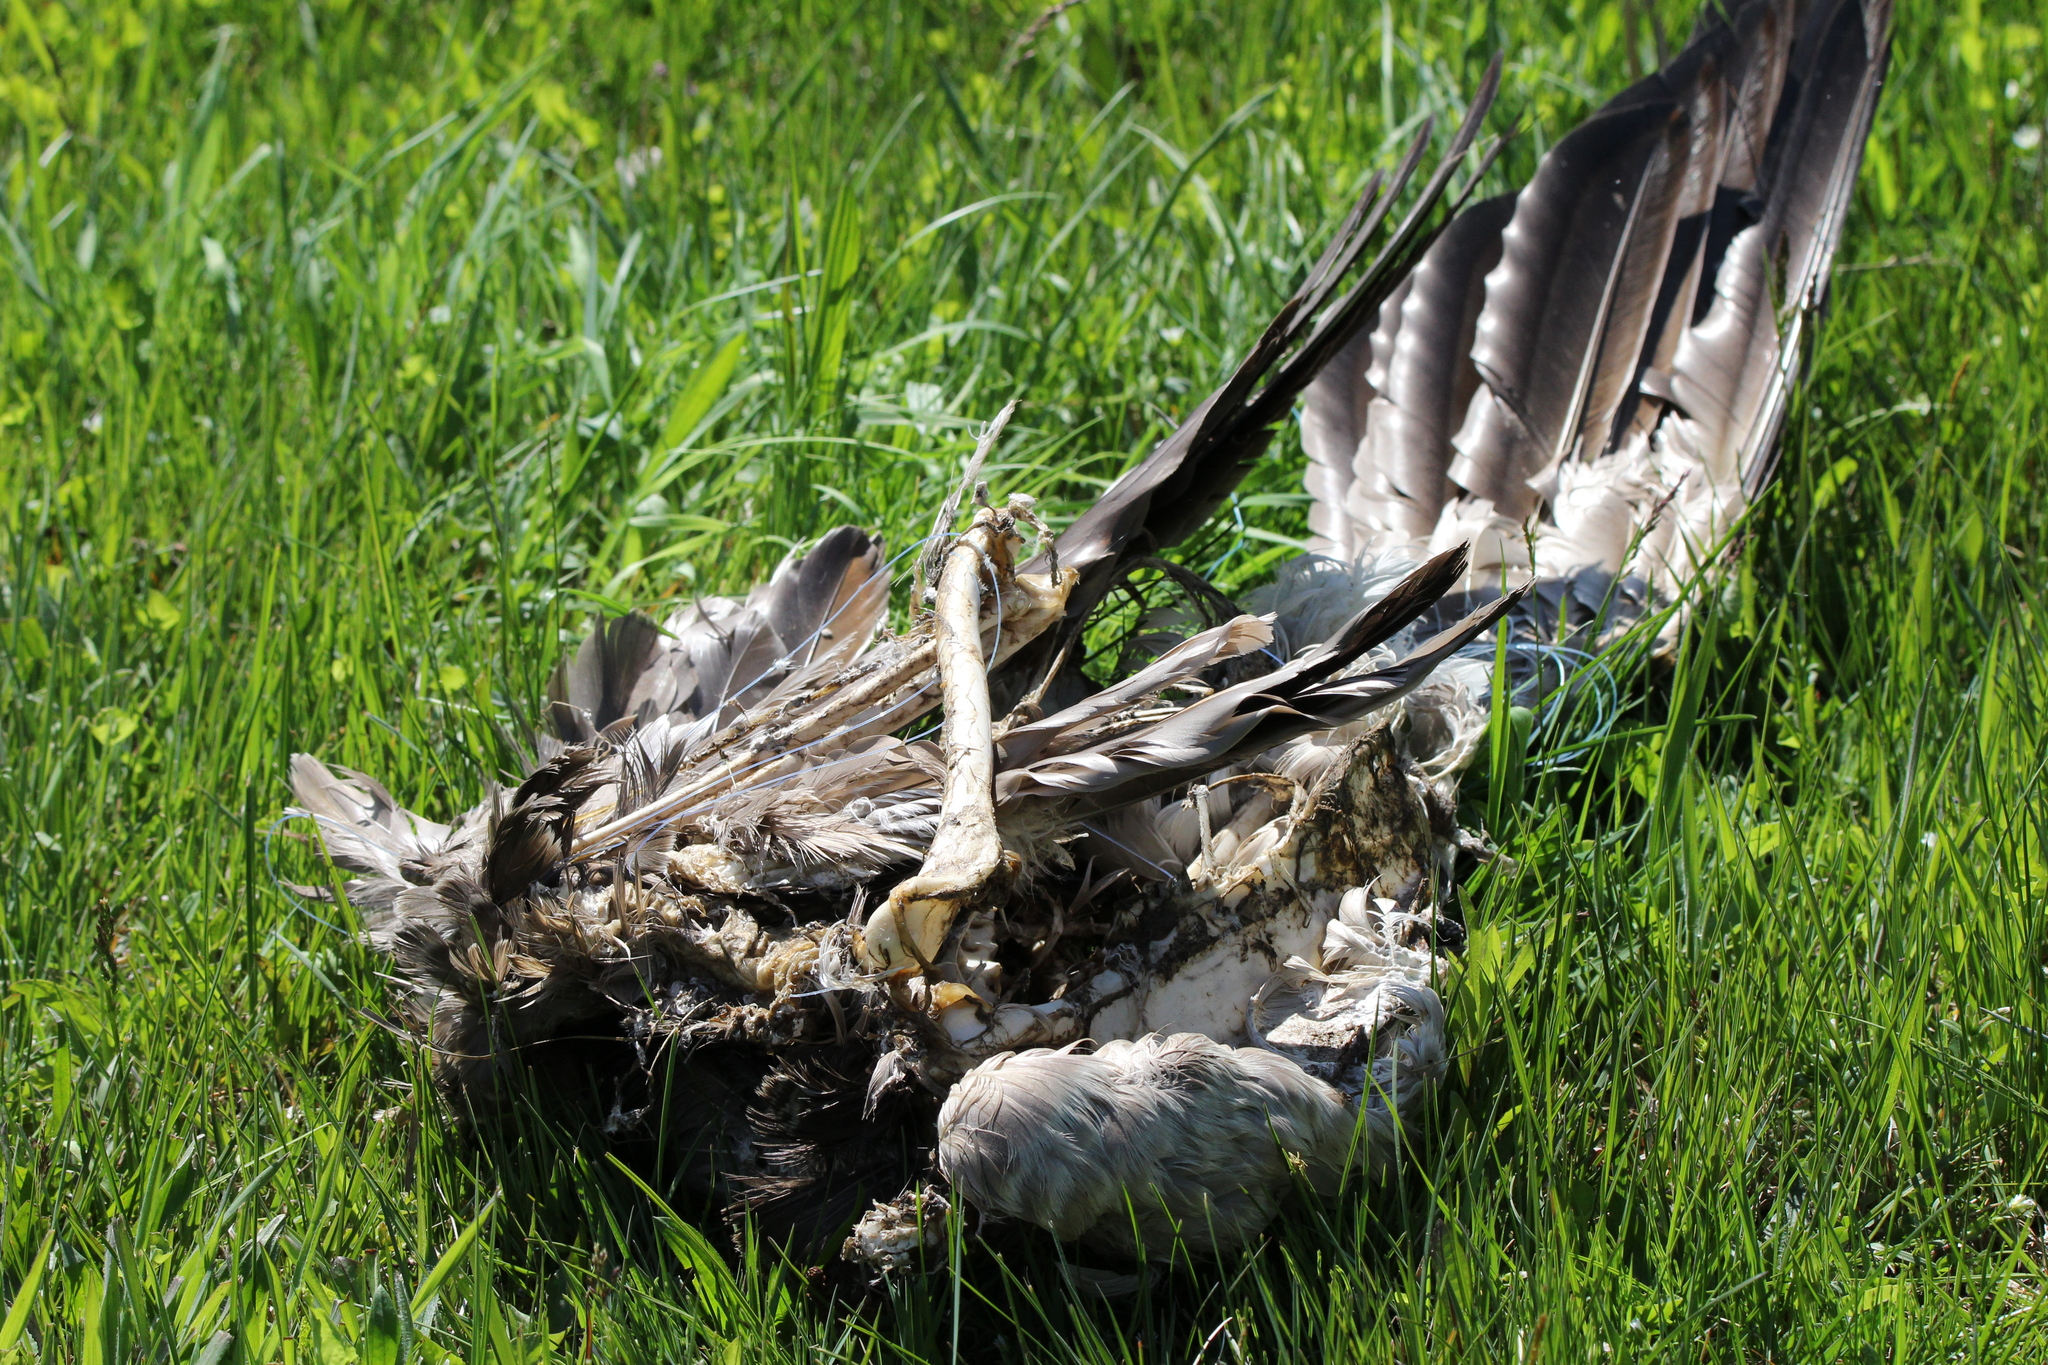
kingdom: Animalia
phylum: Chordata
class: Aves
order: Anseriformes
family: Anatidae
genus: Branta
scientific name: Branta canadensis
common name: Canada goose
